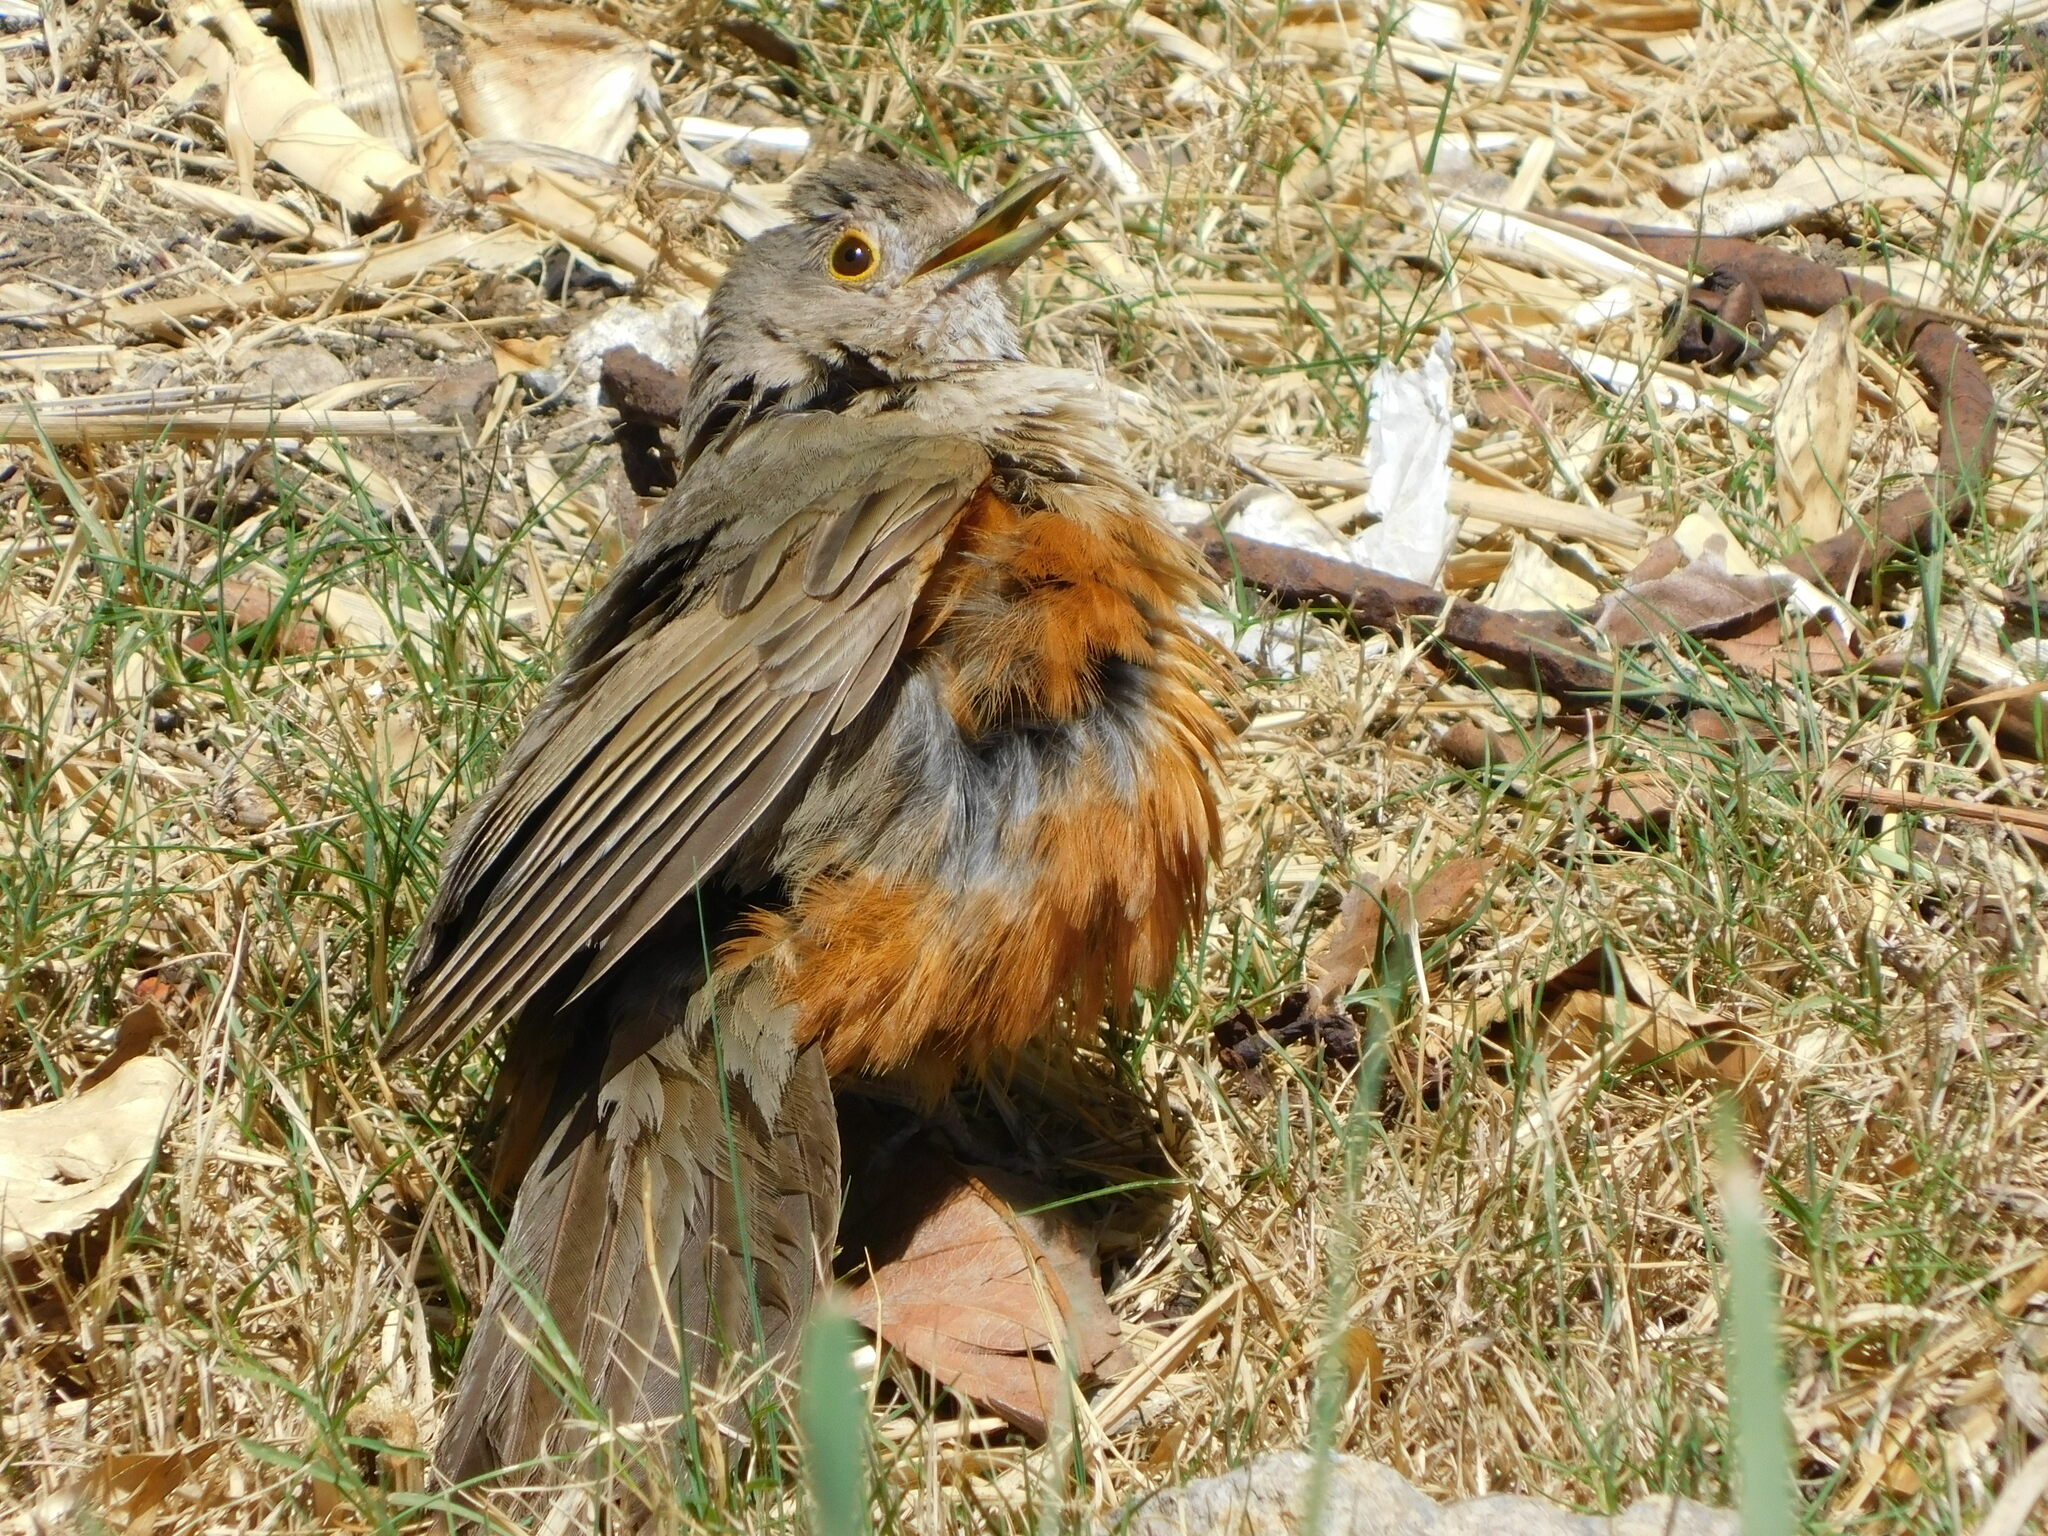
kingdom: Animalia
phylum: Chordata
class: Aves
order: Passeriformes
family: Turdidae
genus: Turdus
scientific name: Turdus rufiventris
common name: Rufous-bellied thrush
